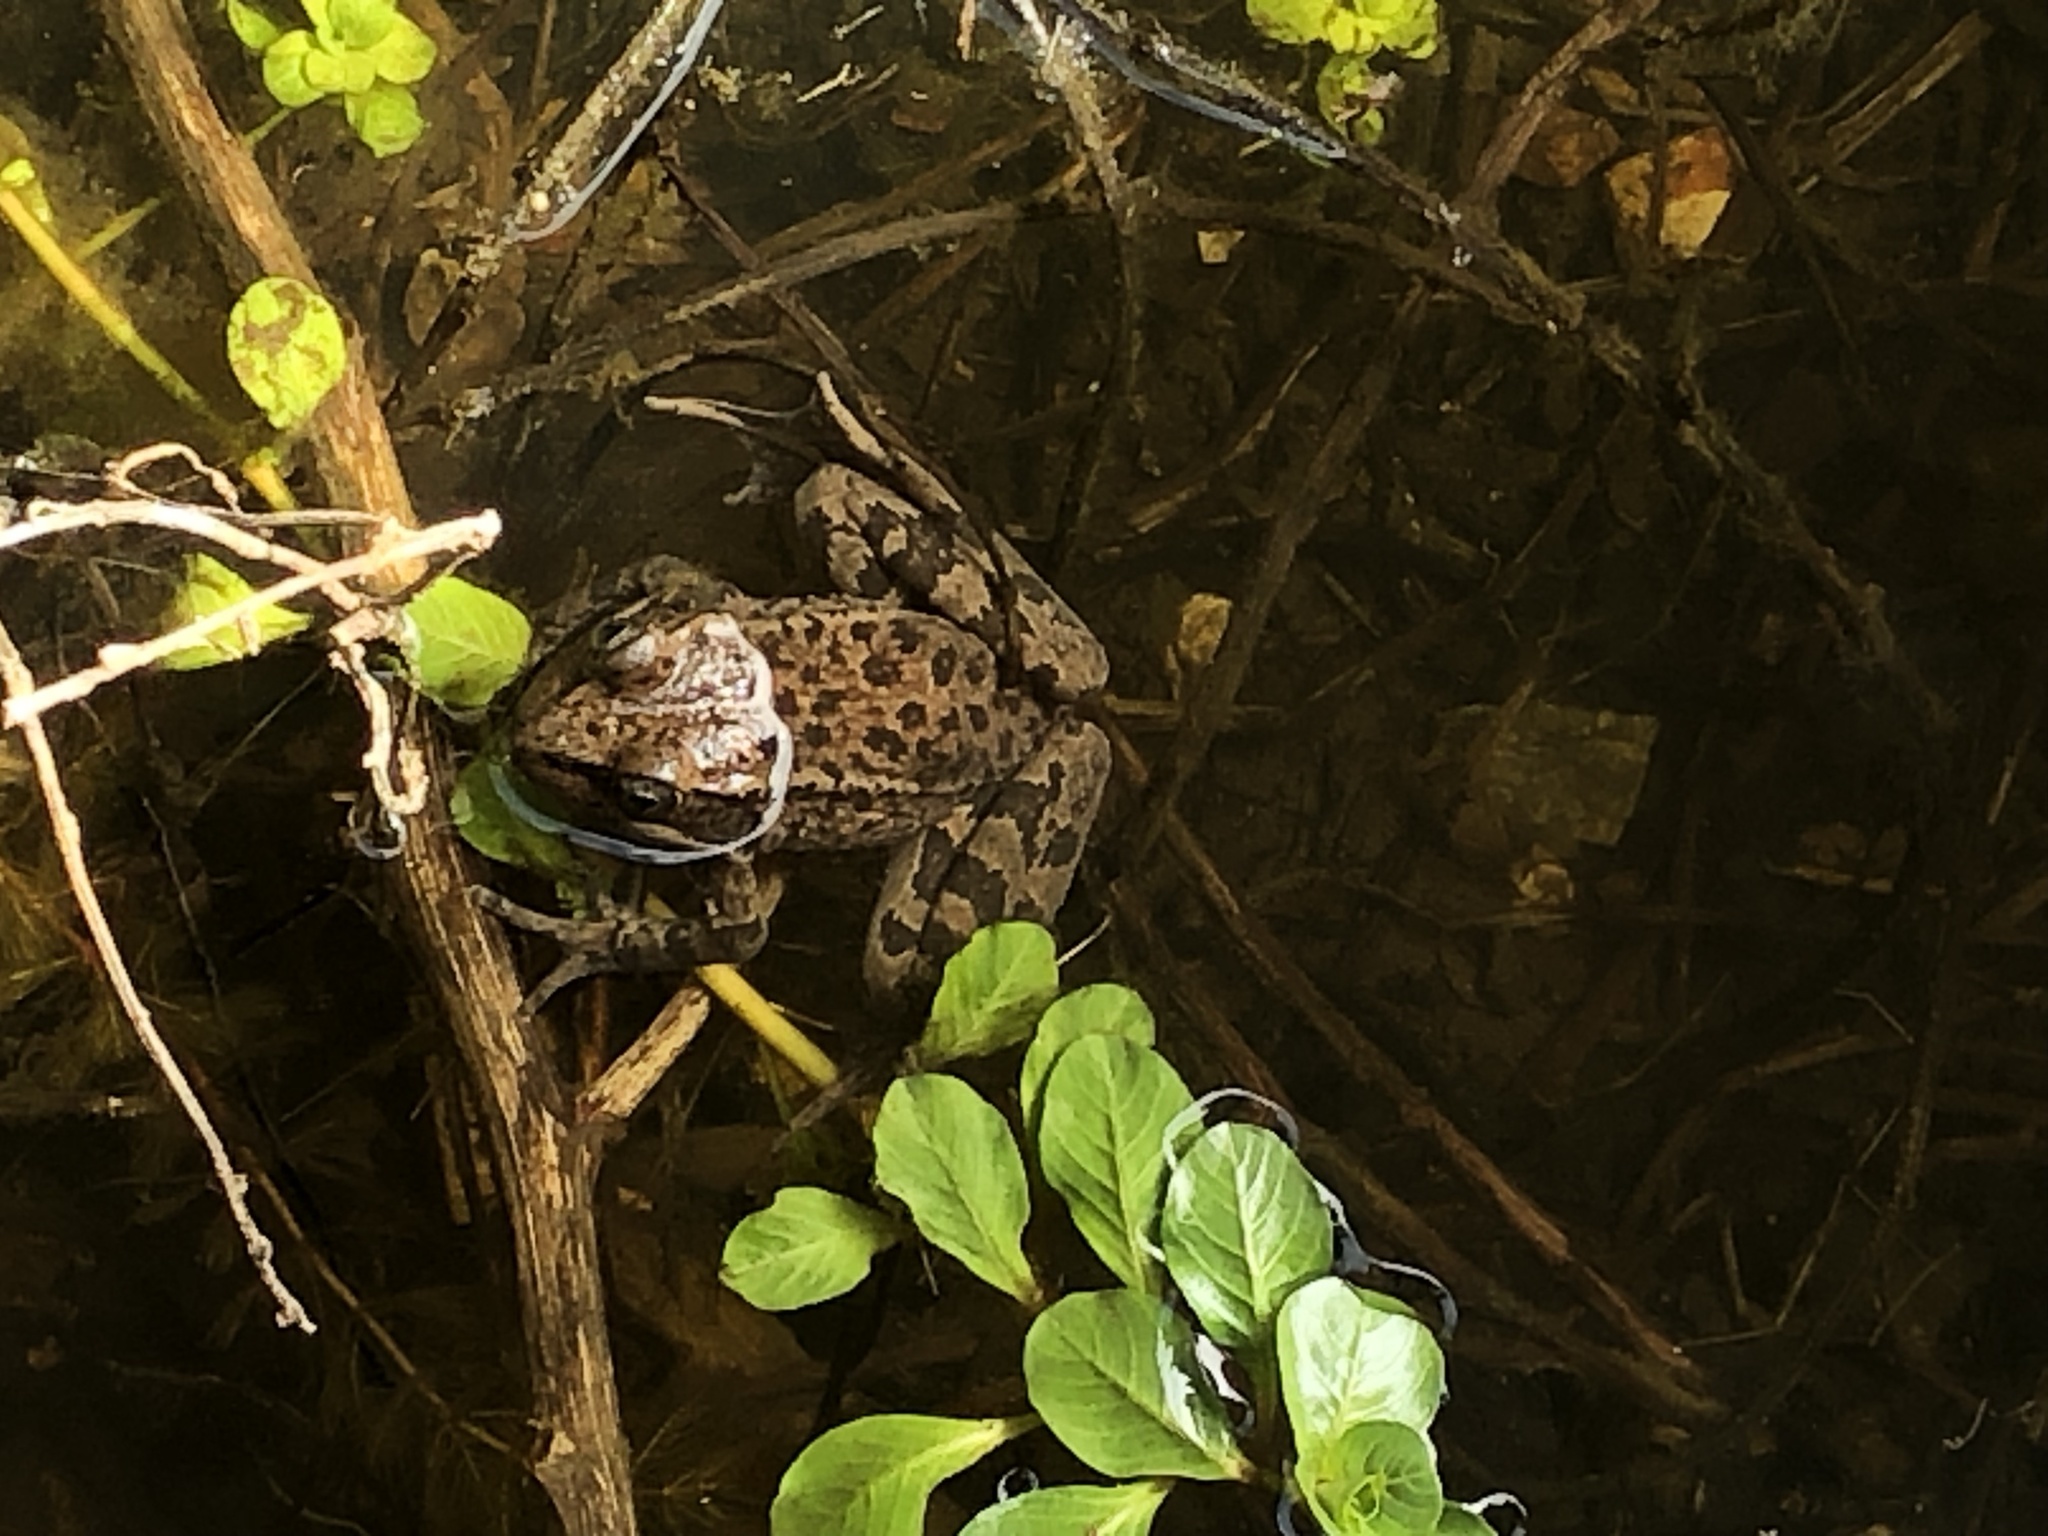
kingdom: Animalia
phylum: Chordata
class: Amphibia
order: Anura
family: Ranidae
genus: Rana
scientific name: Rana draytonii
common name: California red-legged frog
